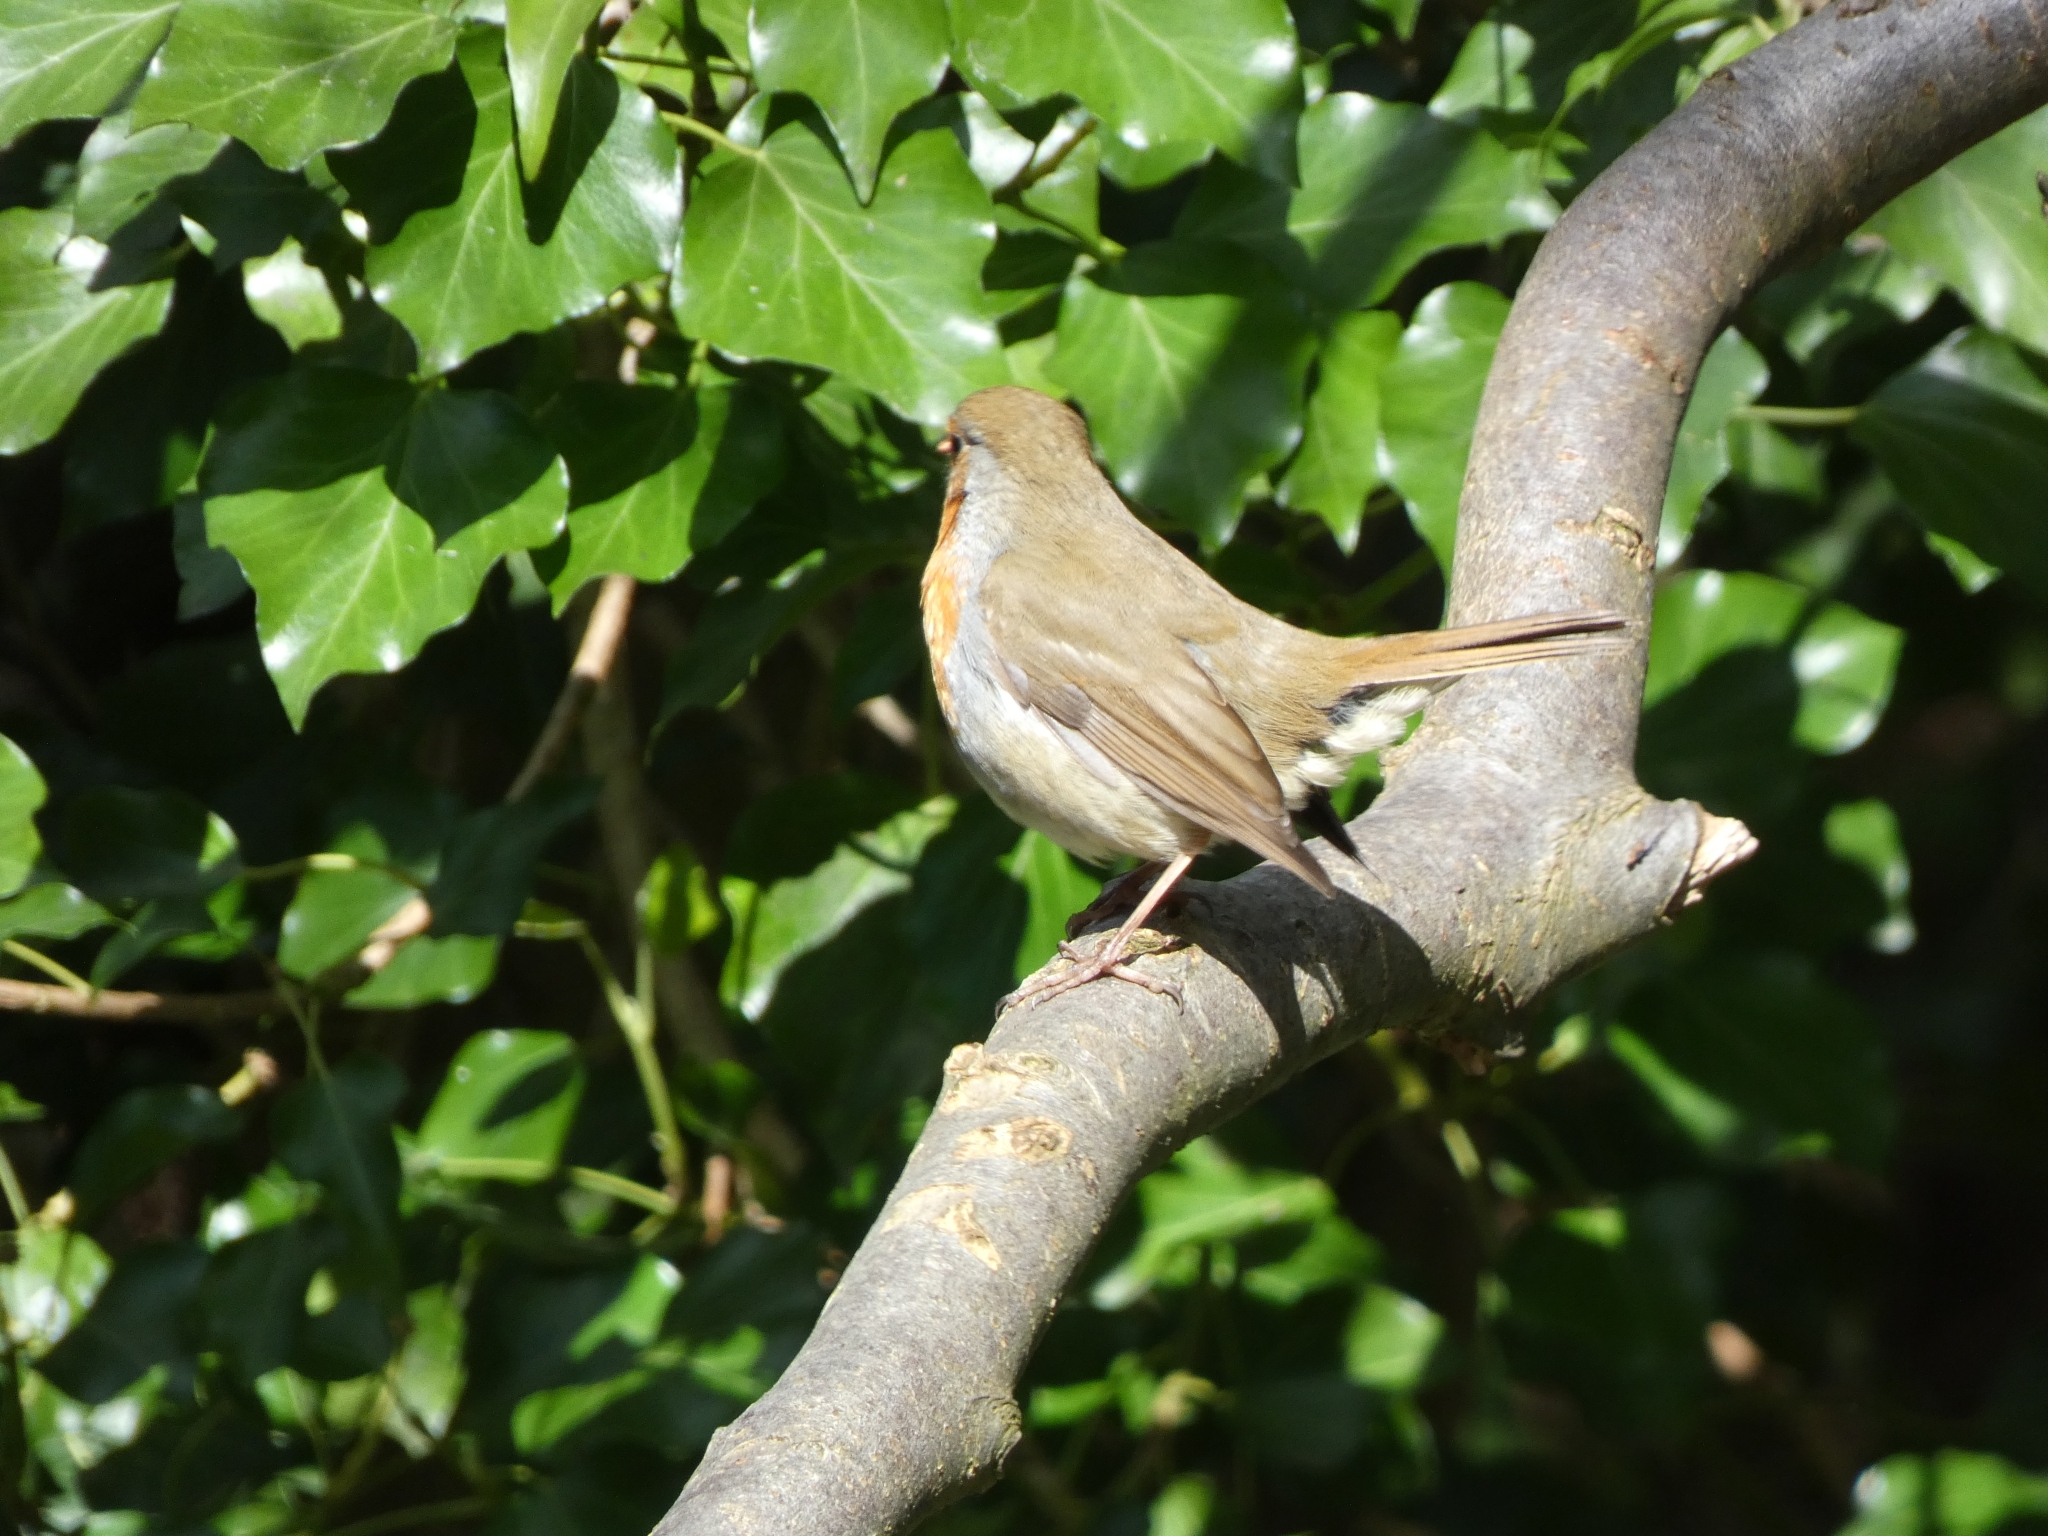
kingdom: Animalia
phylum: Chordata
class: Aves
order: Passeriformes
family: Muscicapidae
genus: Erithacus
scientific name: Erithacus rubecula
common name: European robin
